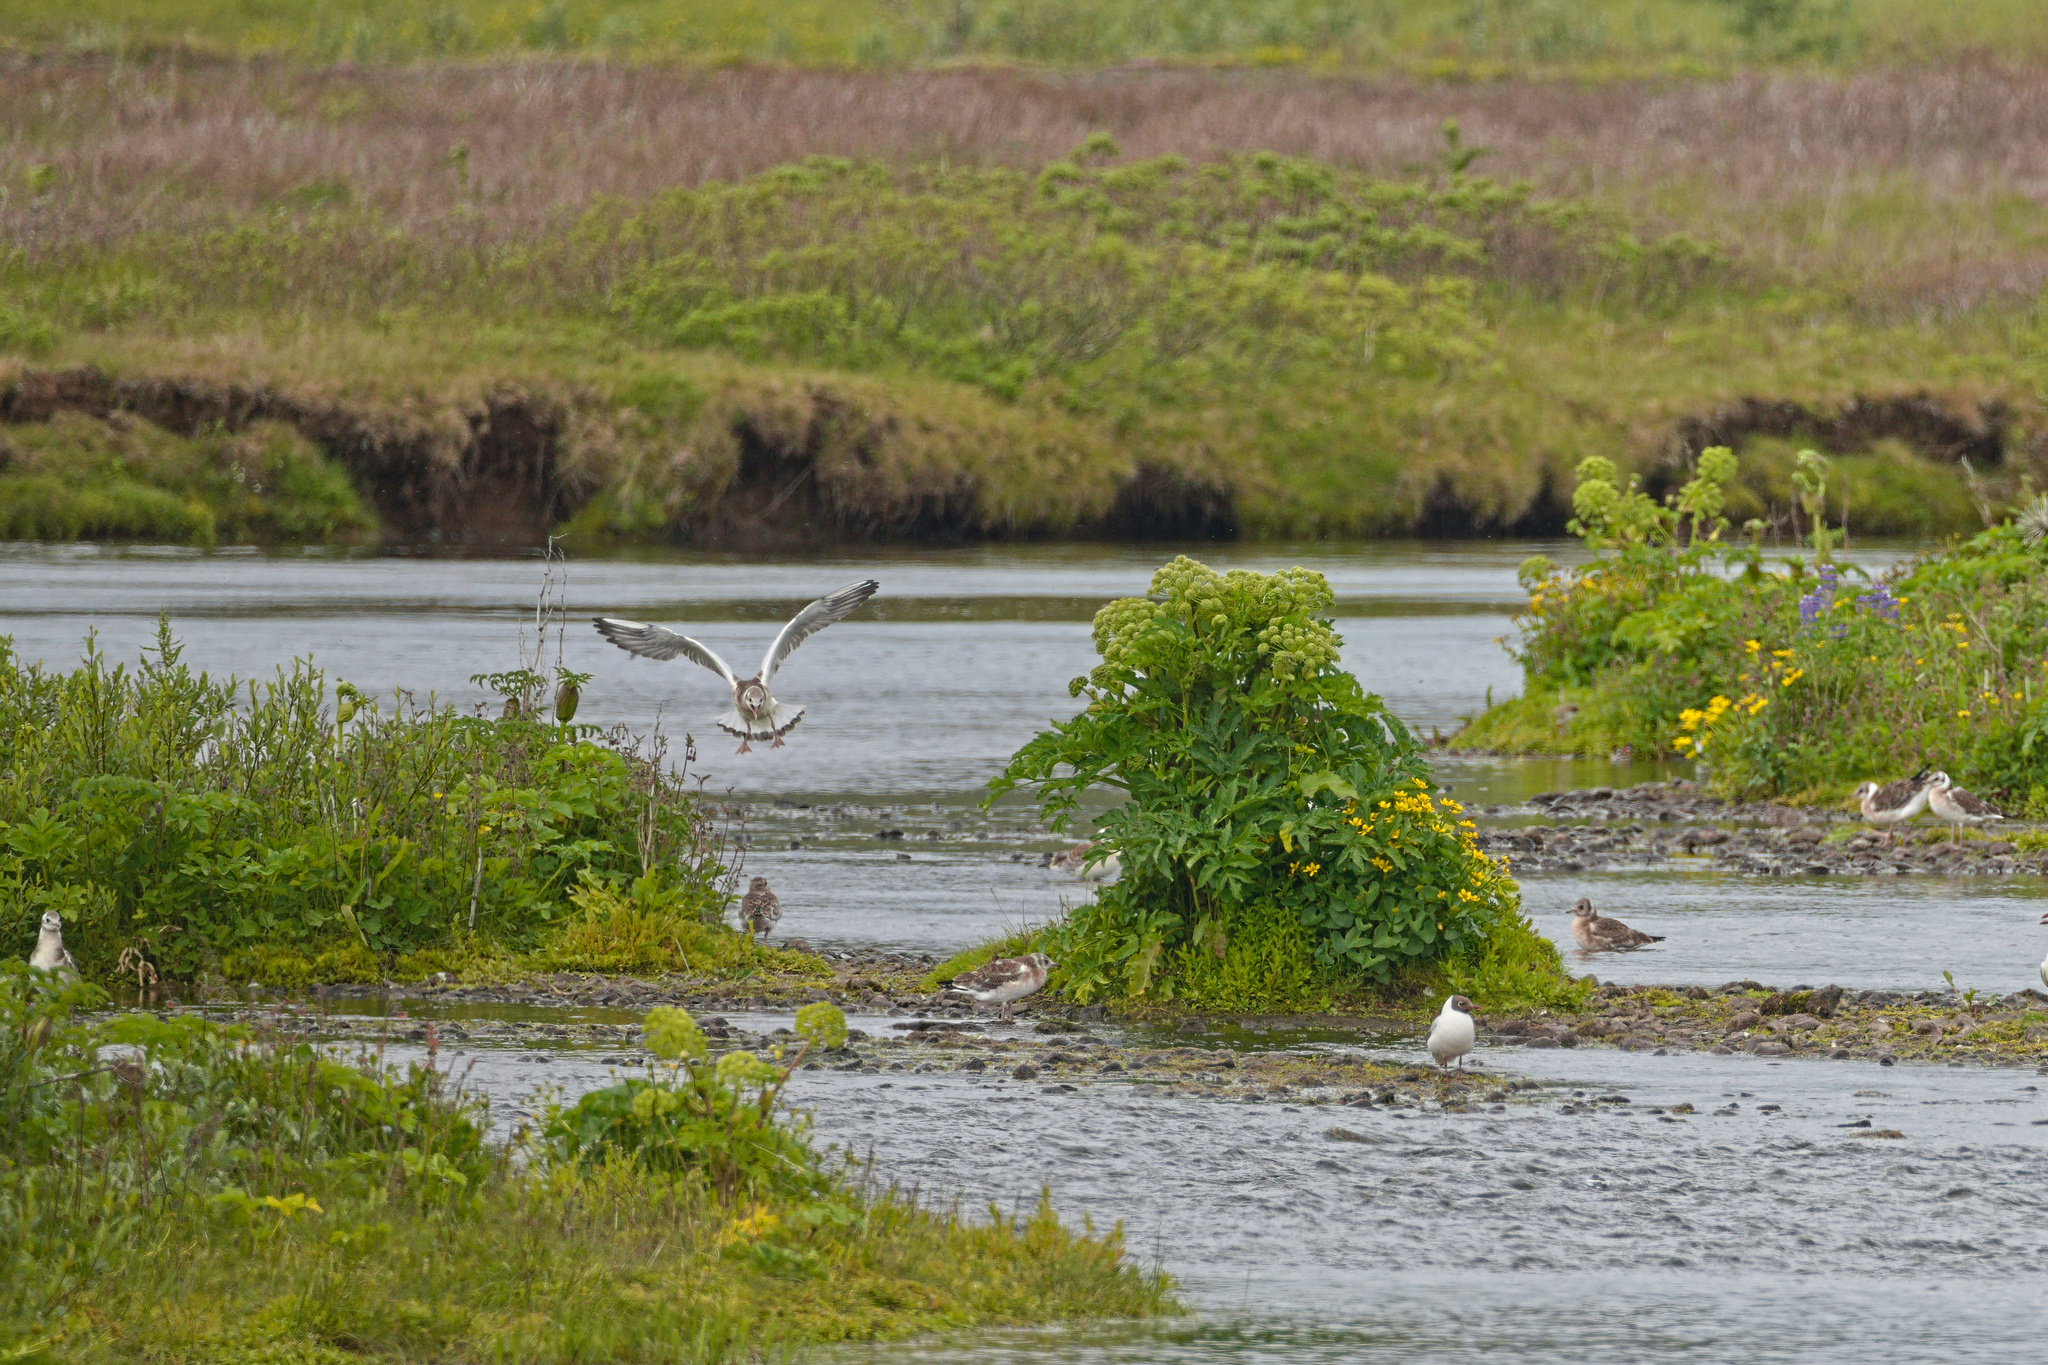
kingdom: Animalia
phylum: Chordata
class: Aves
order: Charadriiformes
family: Laridae
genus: Chroicocephalus
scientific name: Chroicocephalus ridibundus
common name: Black-headed gull
